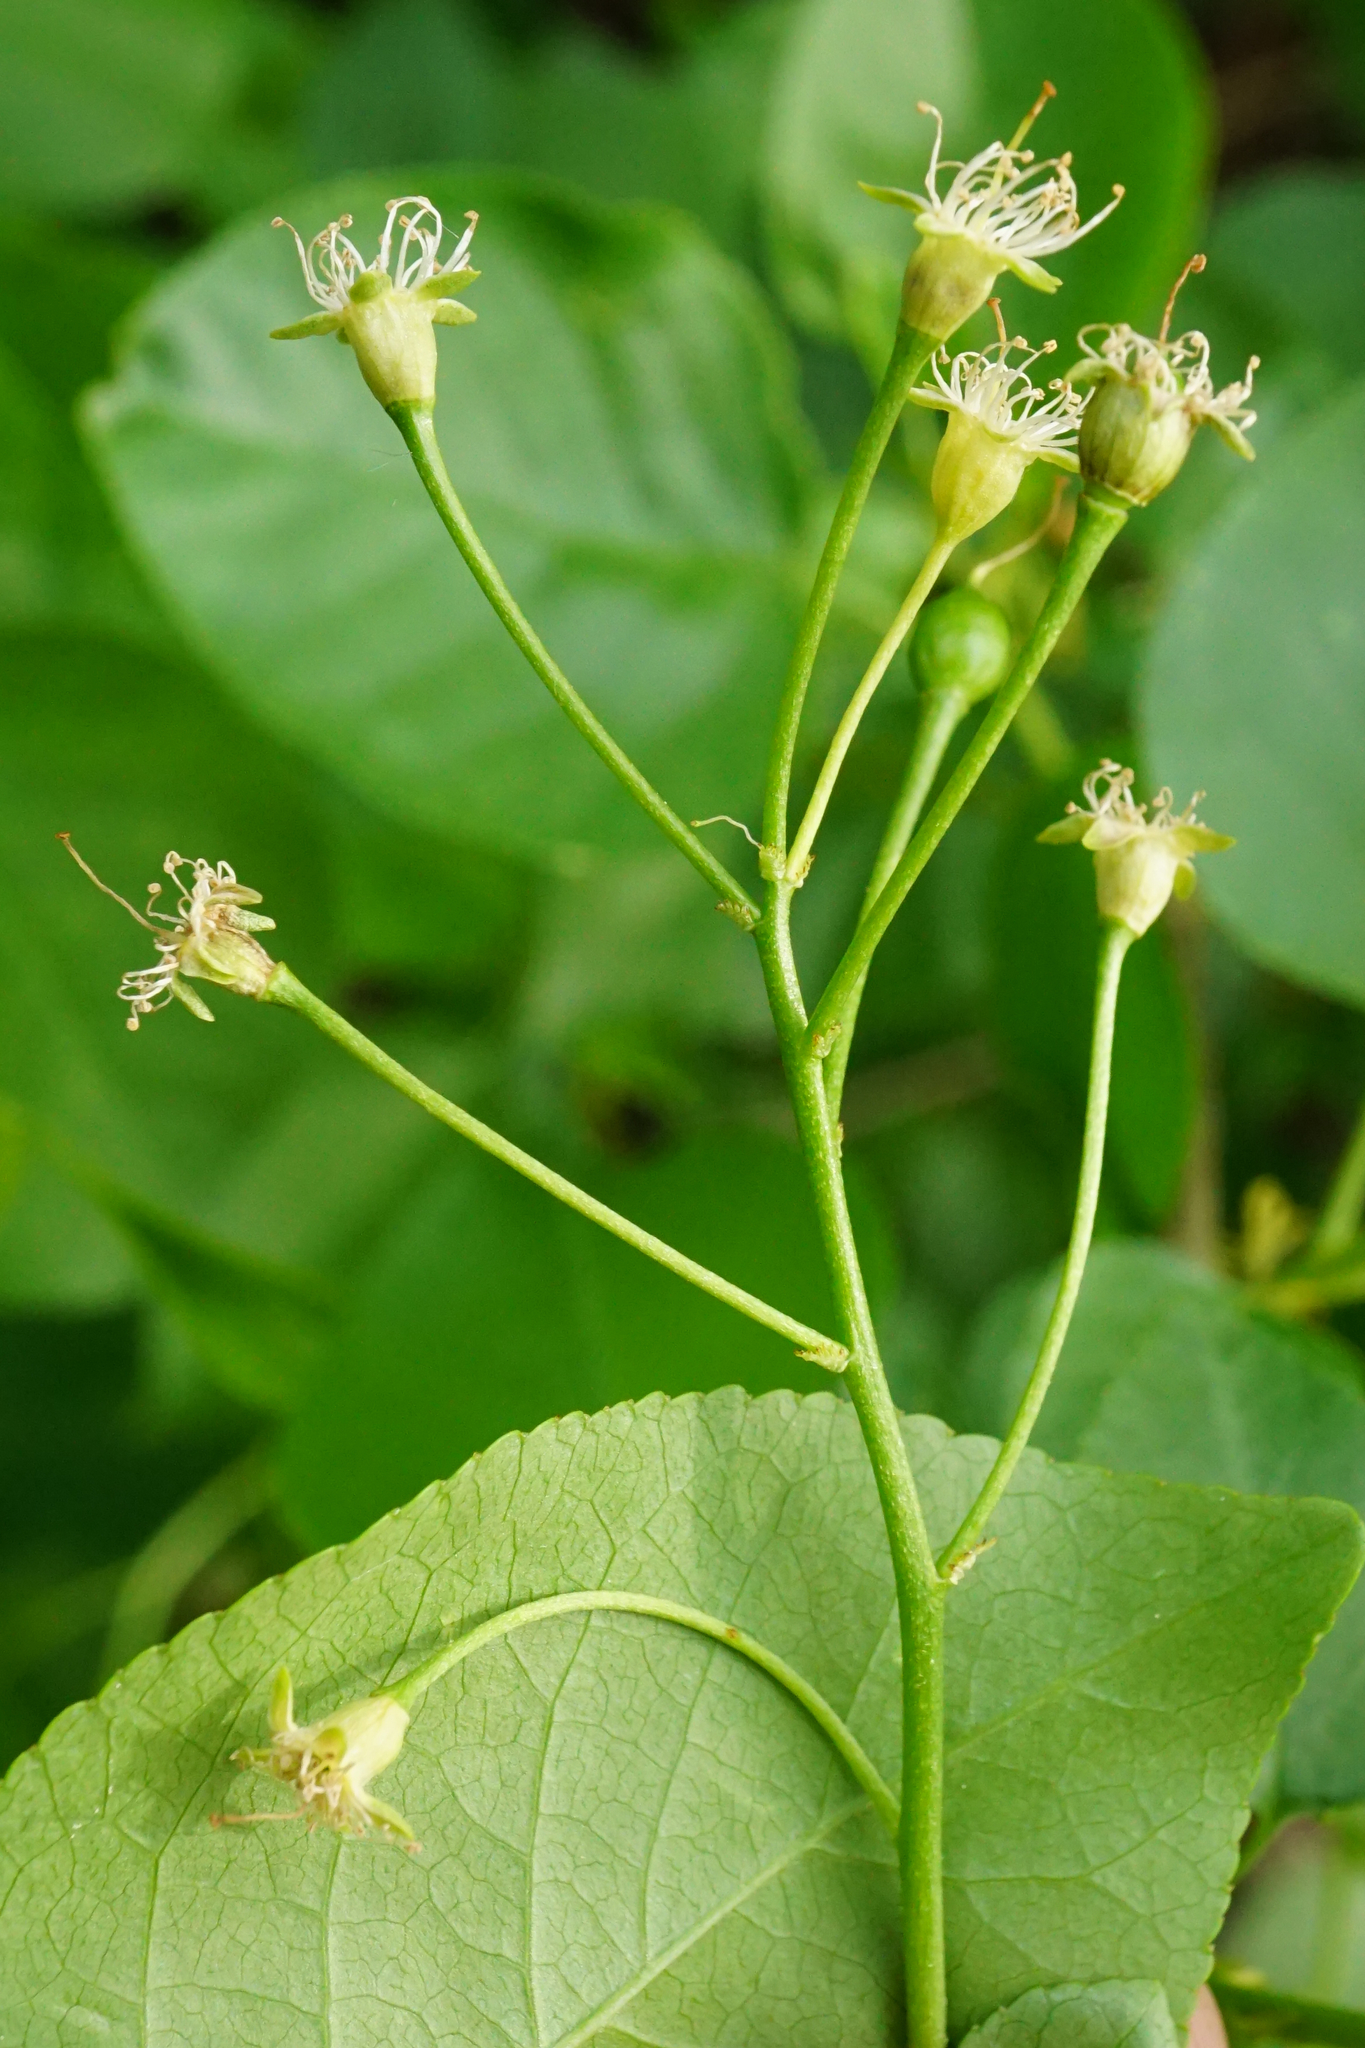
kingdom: Plantae
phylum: Tracheophyta
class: Magnoliopsida
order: Rosales
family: Rosaceae
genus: Prunus
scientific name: Prunus mahaleb
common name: Mahaleb cherry
